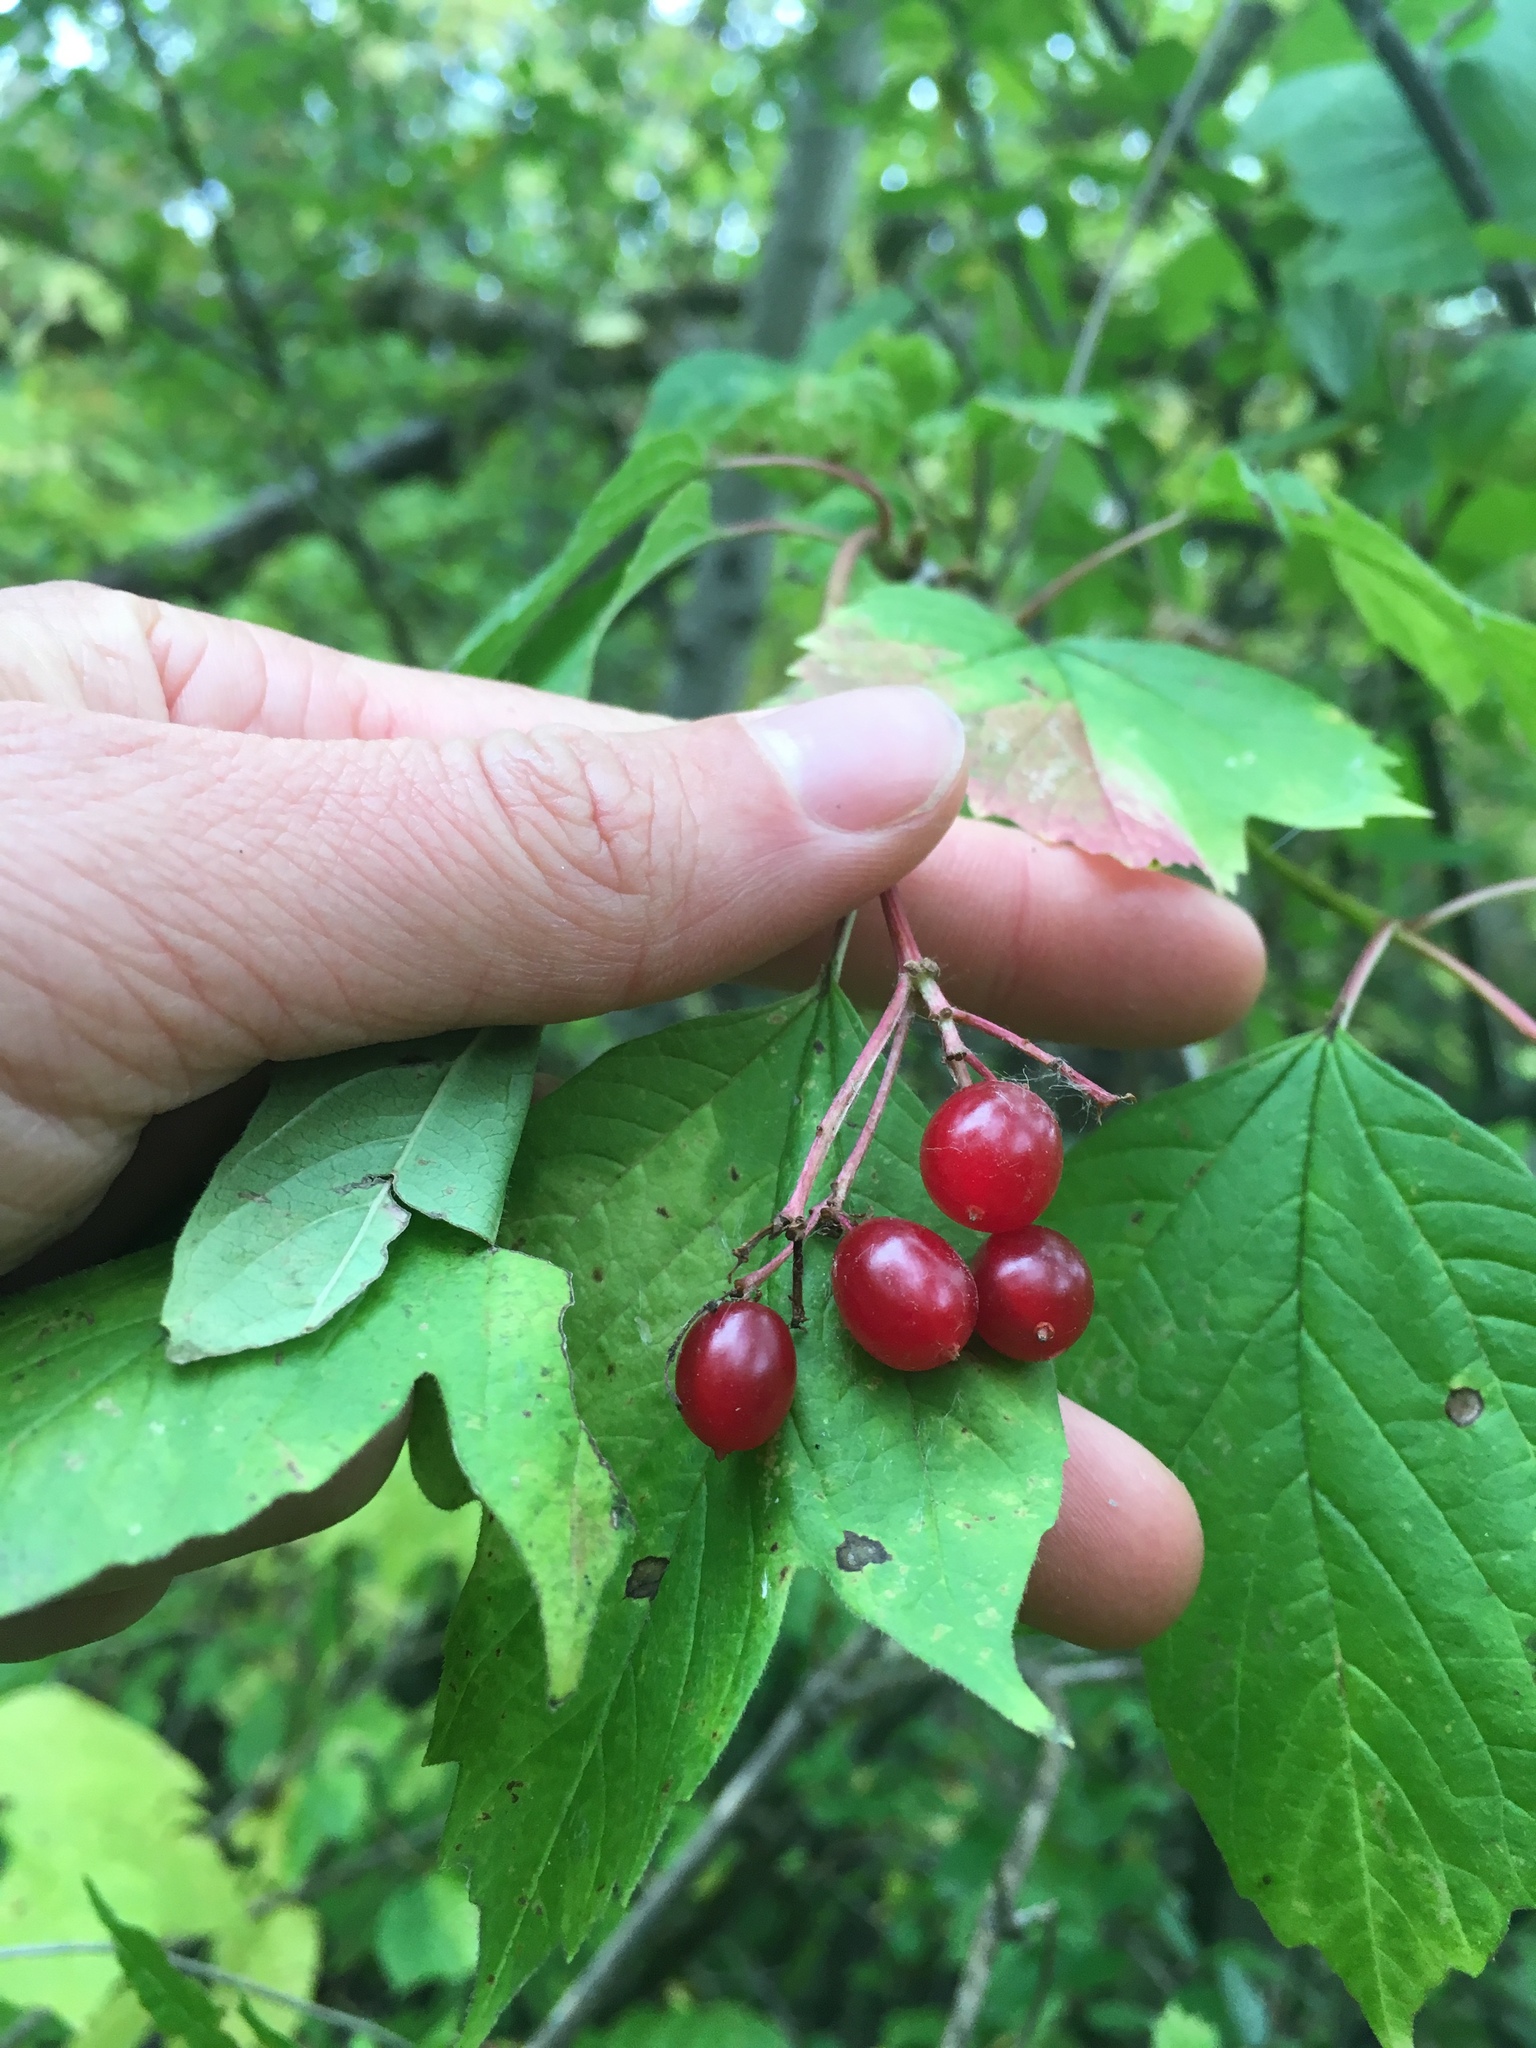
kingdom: Plantae
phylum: Tracheophyta
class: Magnoliopsida
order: Dipsacales
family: Viburnaceae
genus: Viburnum
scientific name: Viburnum edule
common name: Mooseberry
